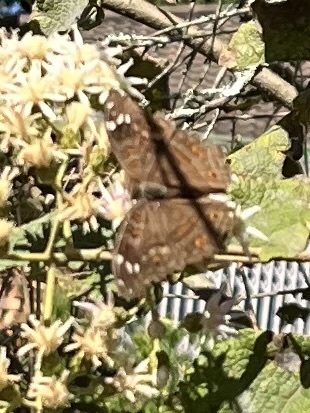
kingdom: Animalia
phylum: Arthropoda
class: Insecta
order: Lepidoptera
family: Nymphalidae
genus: Junonia
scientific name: Junonia natalica
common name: Brown pansy
